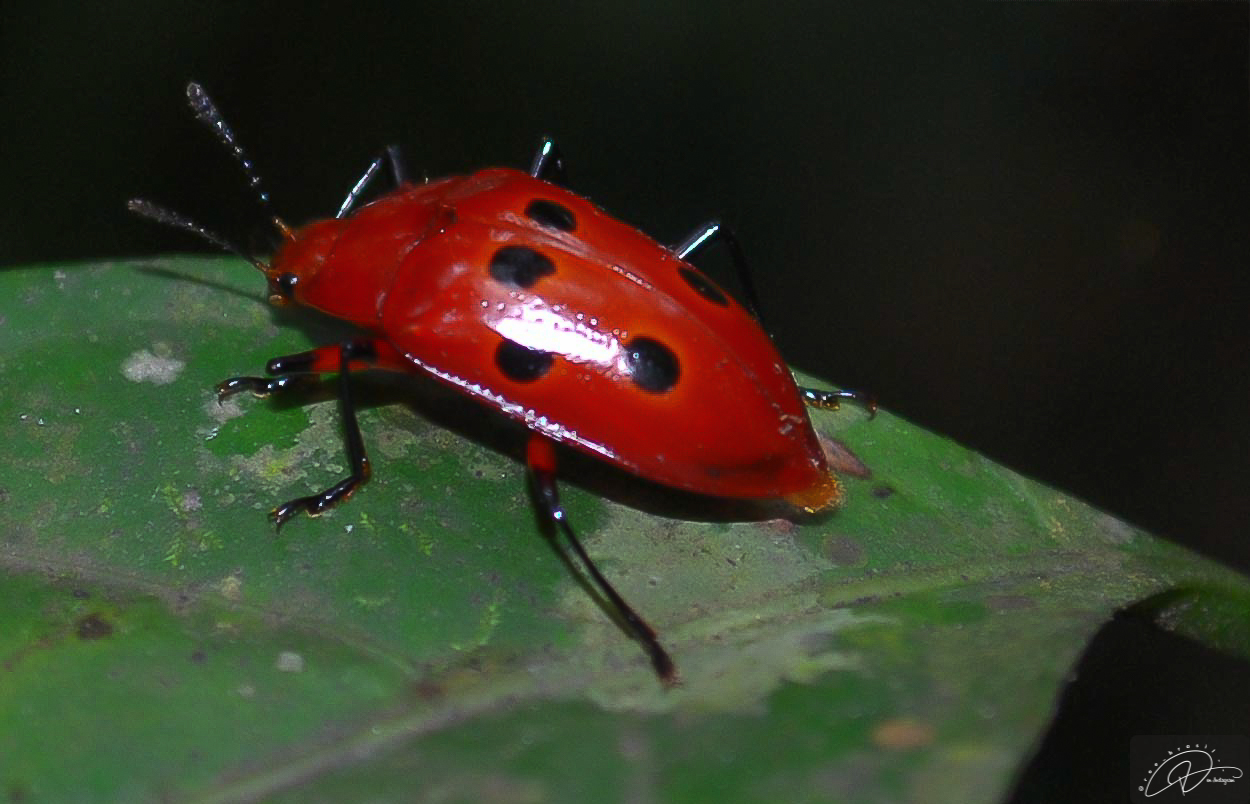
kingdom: Animalia
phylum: Arthropoda
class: Insecta
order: Coleoptera
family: Erotylidae
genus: Iphiclus
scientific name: Iphiclus
